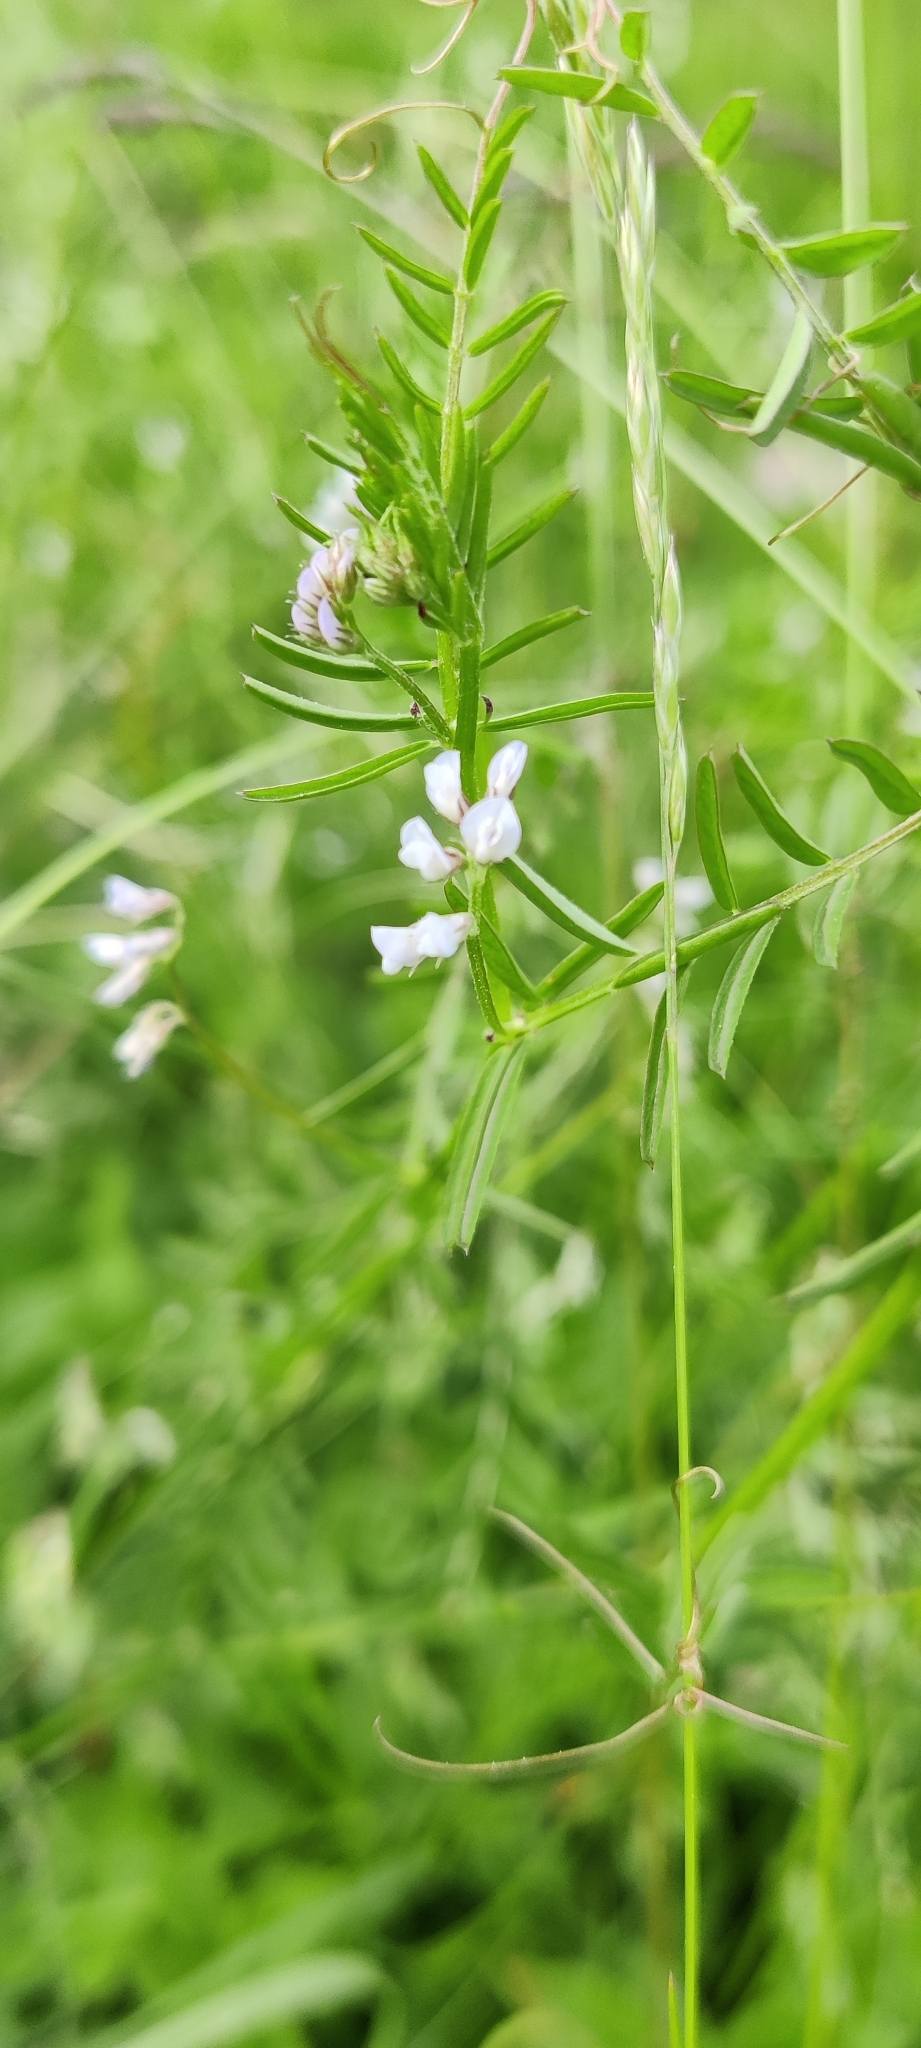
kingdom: Plantae
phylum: Tracheophyta
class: Magnoliopsida
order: Fabales
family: Fabaceae
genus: Vicia
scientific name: Vicia hirsuta
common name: Tiny vetch
